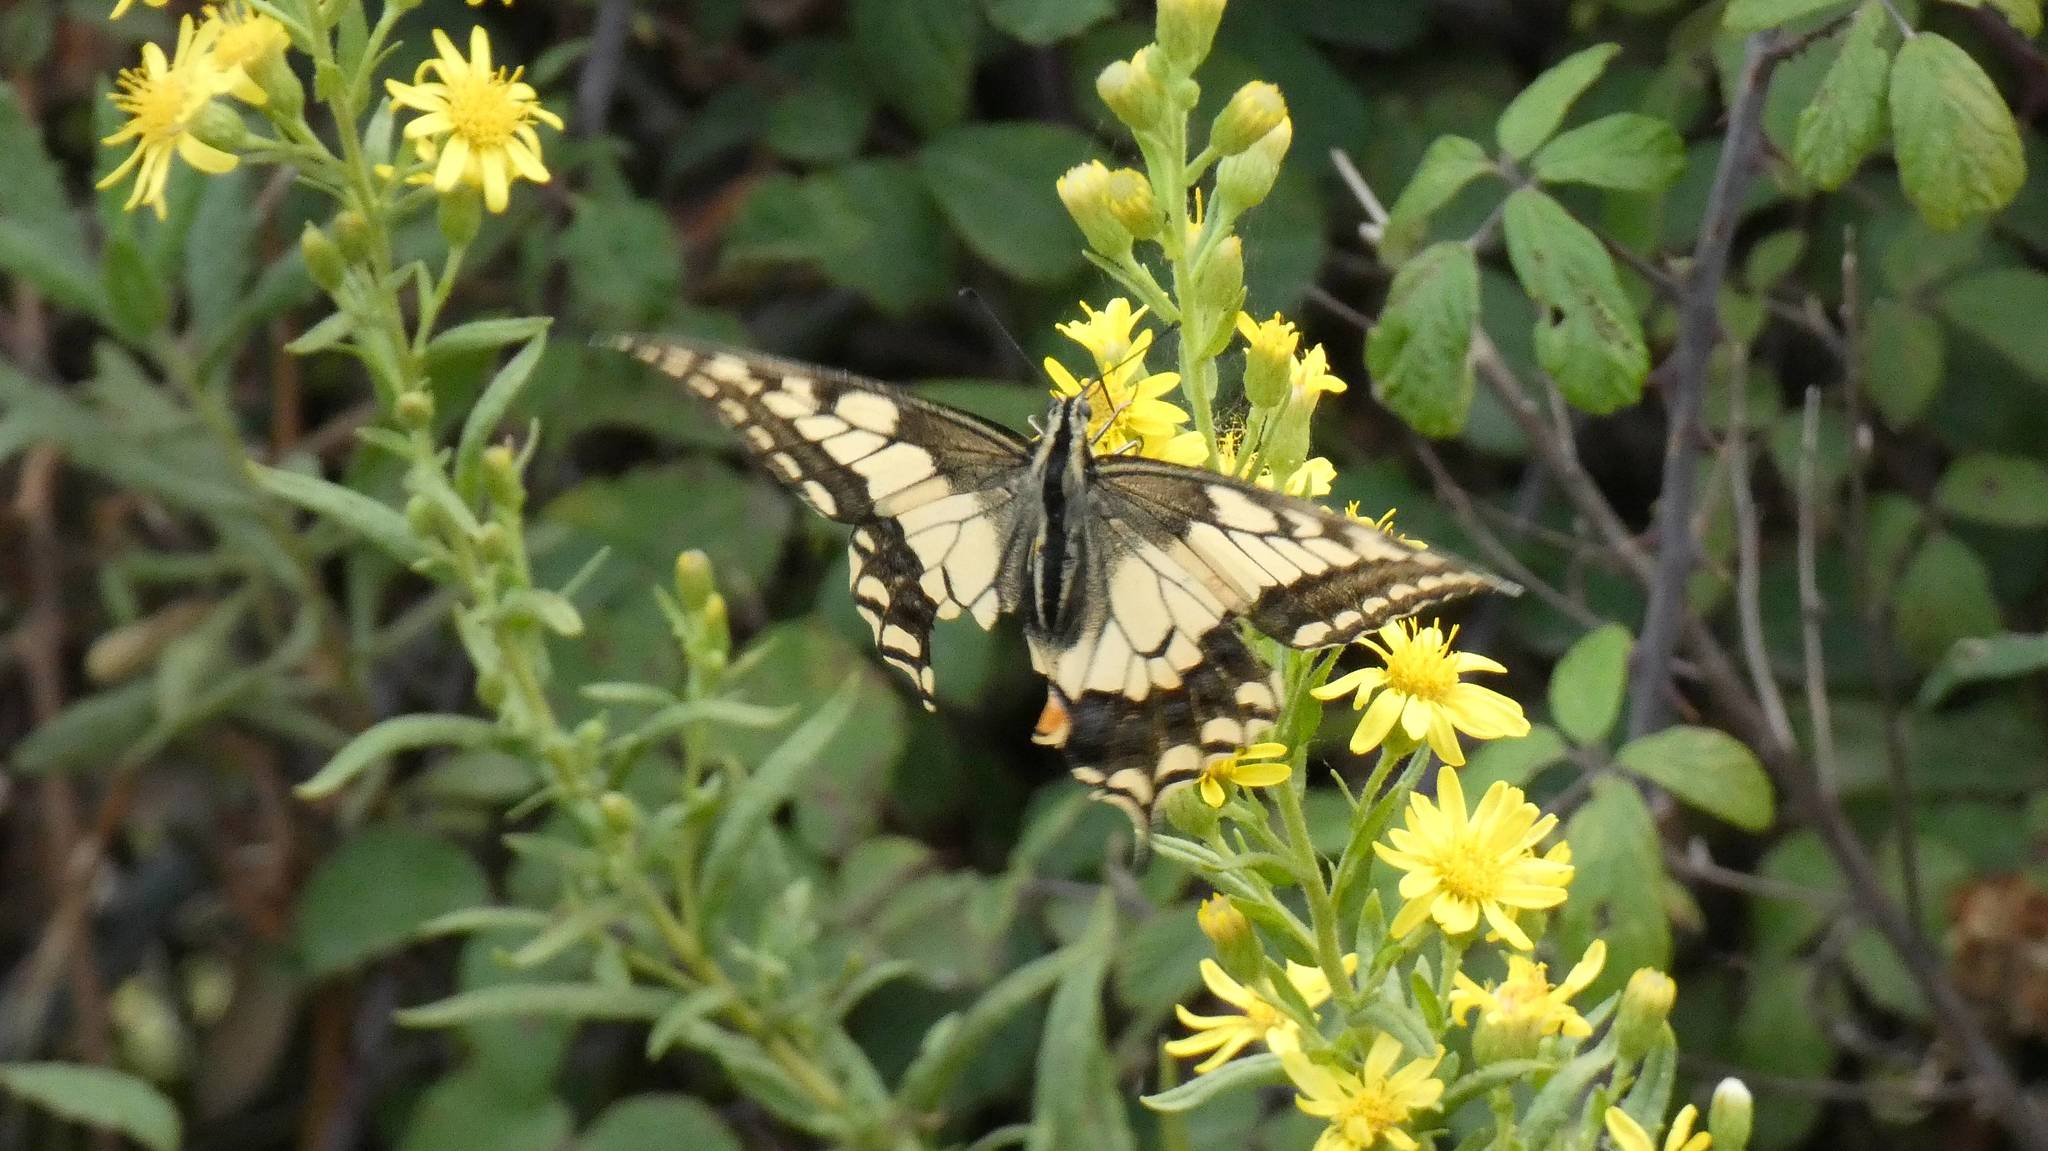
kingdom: Animalia
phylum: Arthropoda
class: Insecta
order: Lepidoptera
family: Papilionidae
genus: Papilio
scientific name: Papilio machaon
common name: Swallowtail
